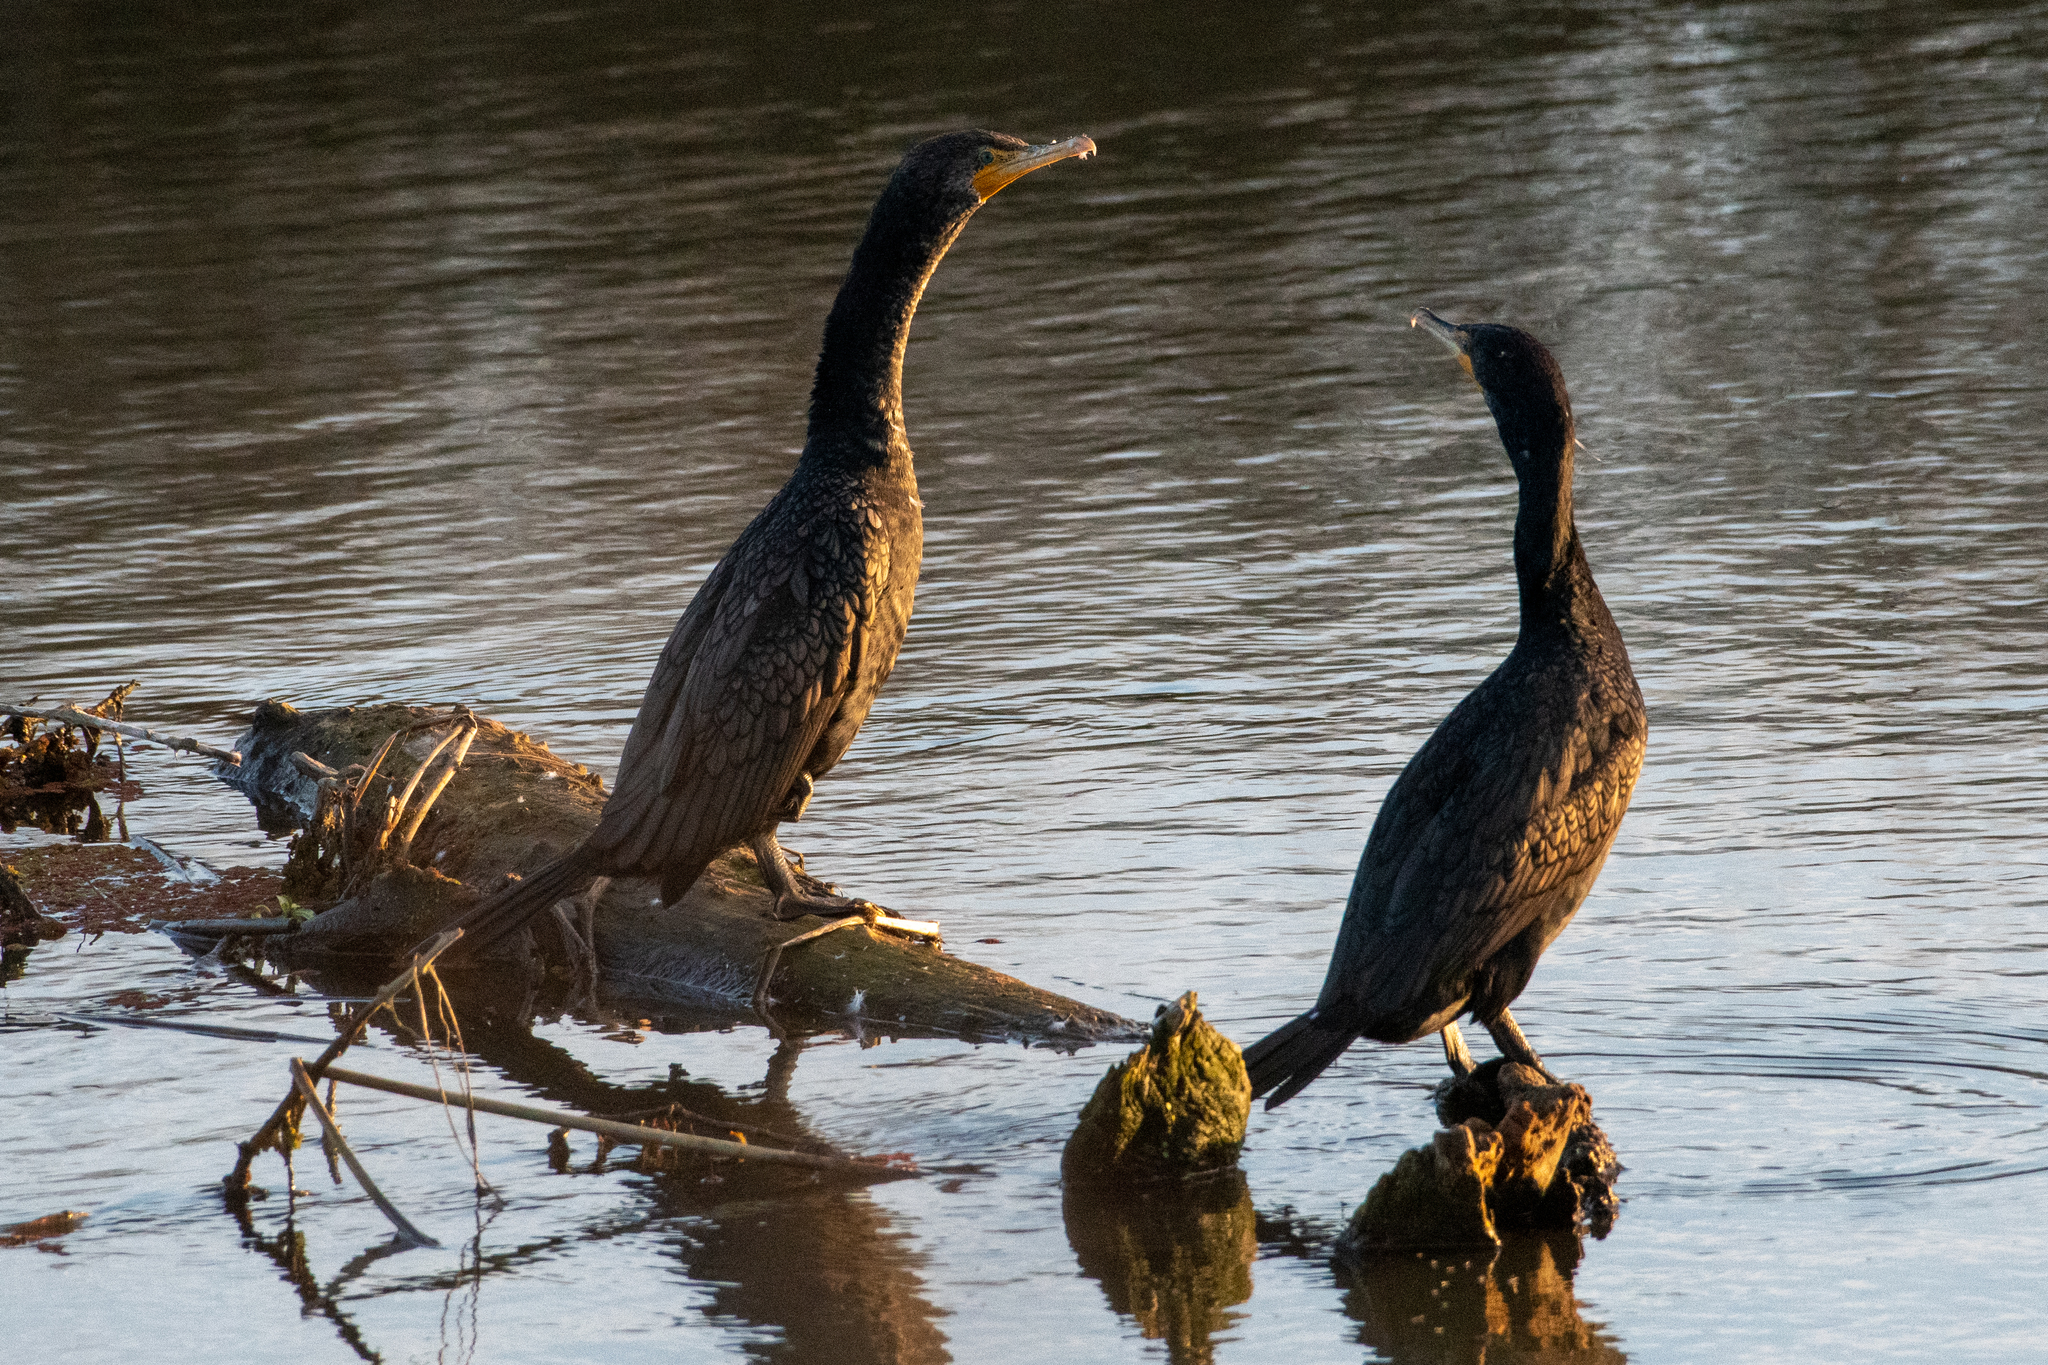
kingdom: Animalia
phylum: Chordata
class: Aves
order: Suliformes
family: Phalacrocoracidae
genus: Phalacrocorax
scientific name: Phalacrocorax auritus
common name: Double-crested cormorant
